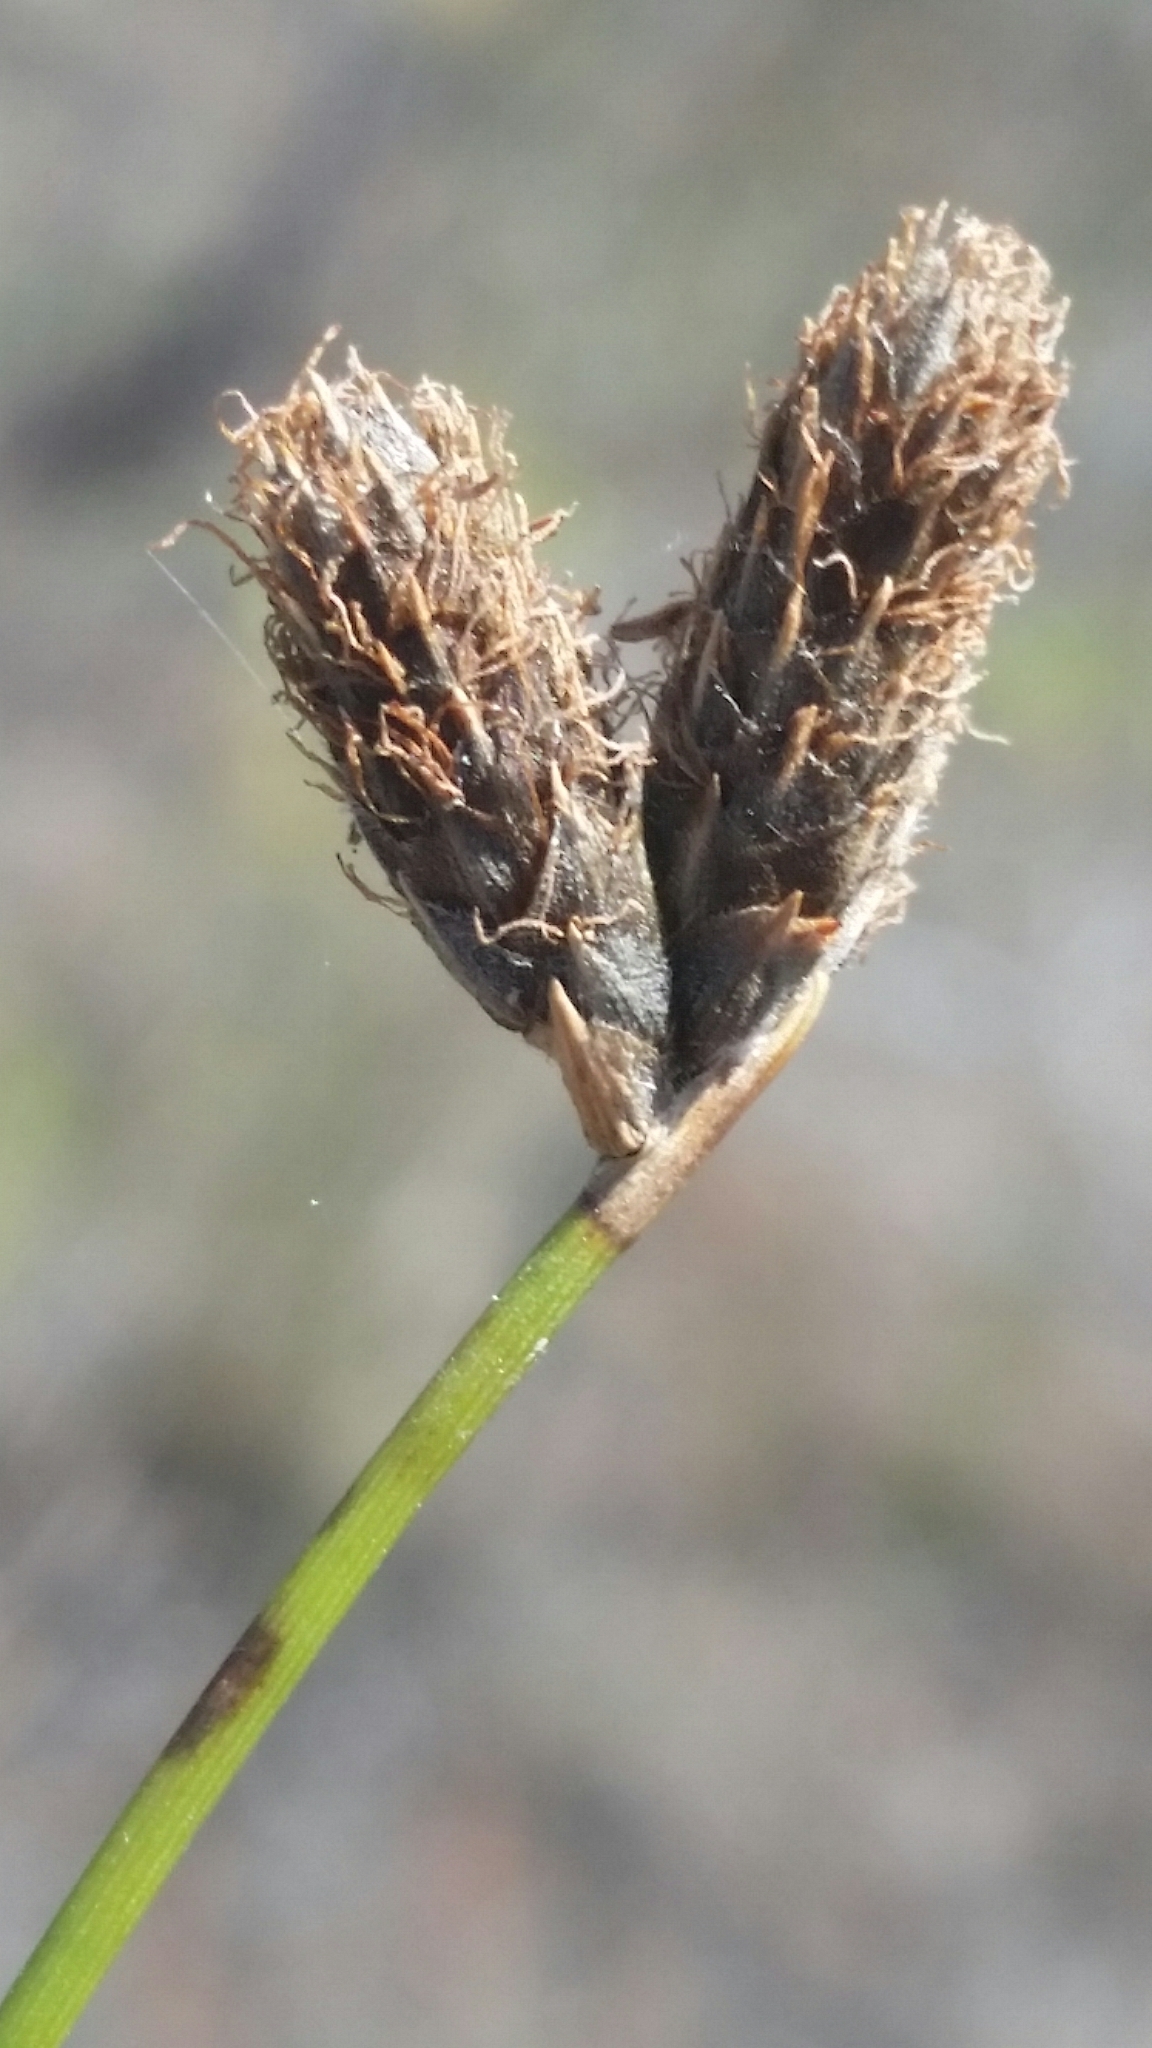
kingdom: Plantae
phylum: Tracheophyta
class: Liliopsida
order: Poales
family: Cyperaceae
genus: Fuirena
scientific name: Fuirena scirpoidea
